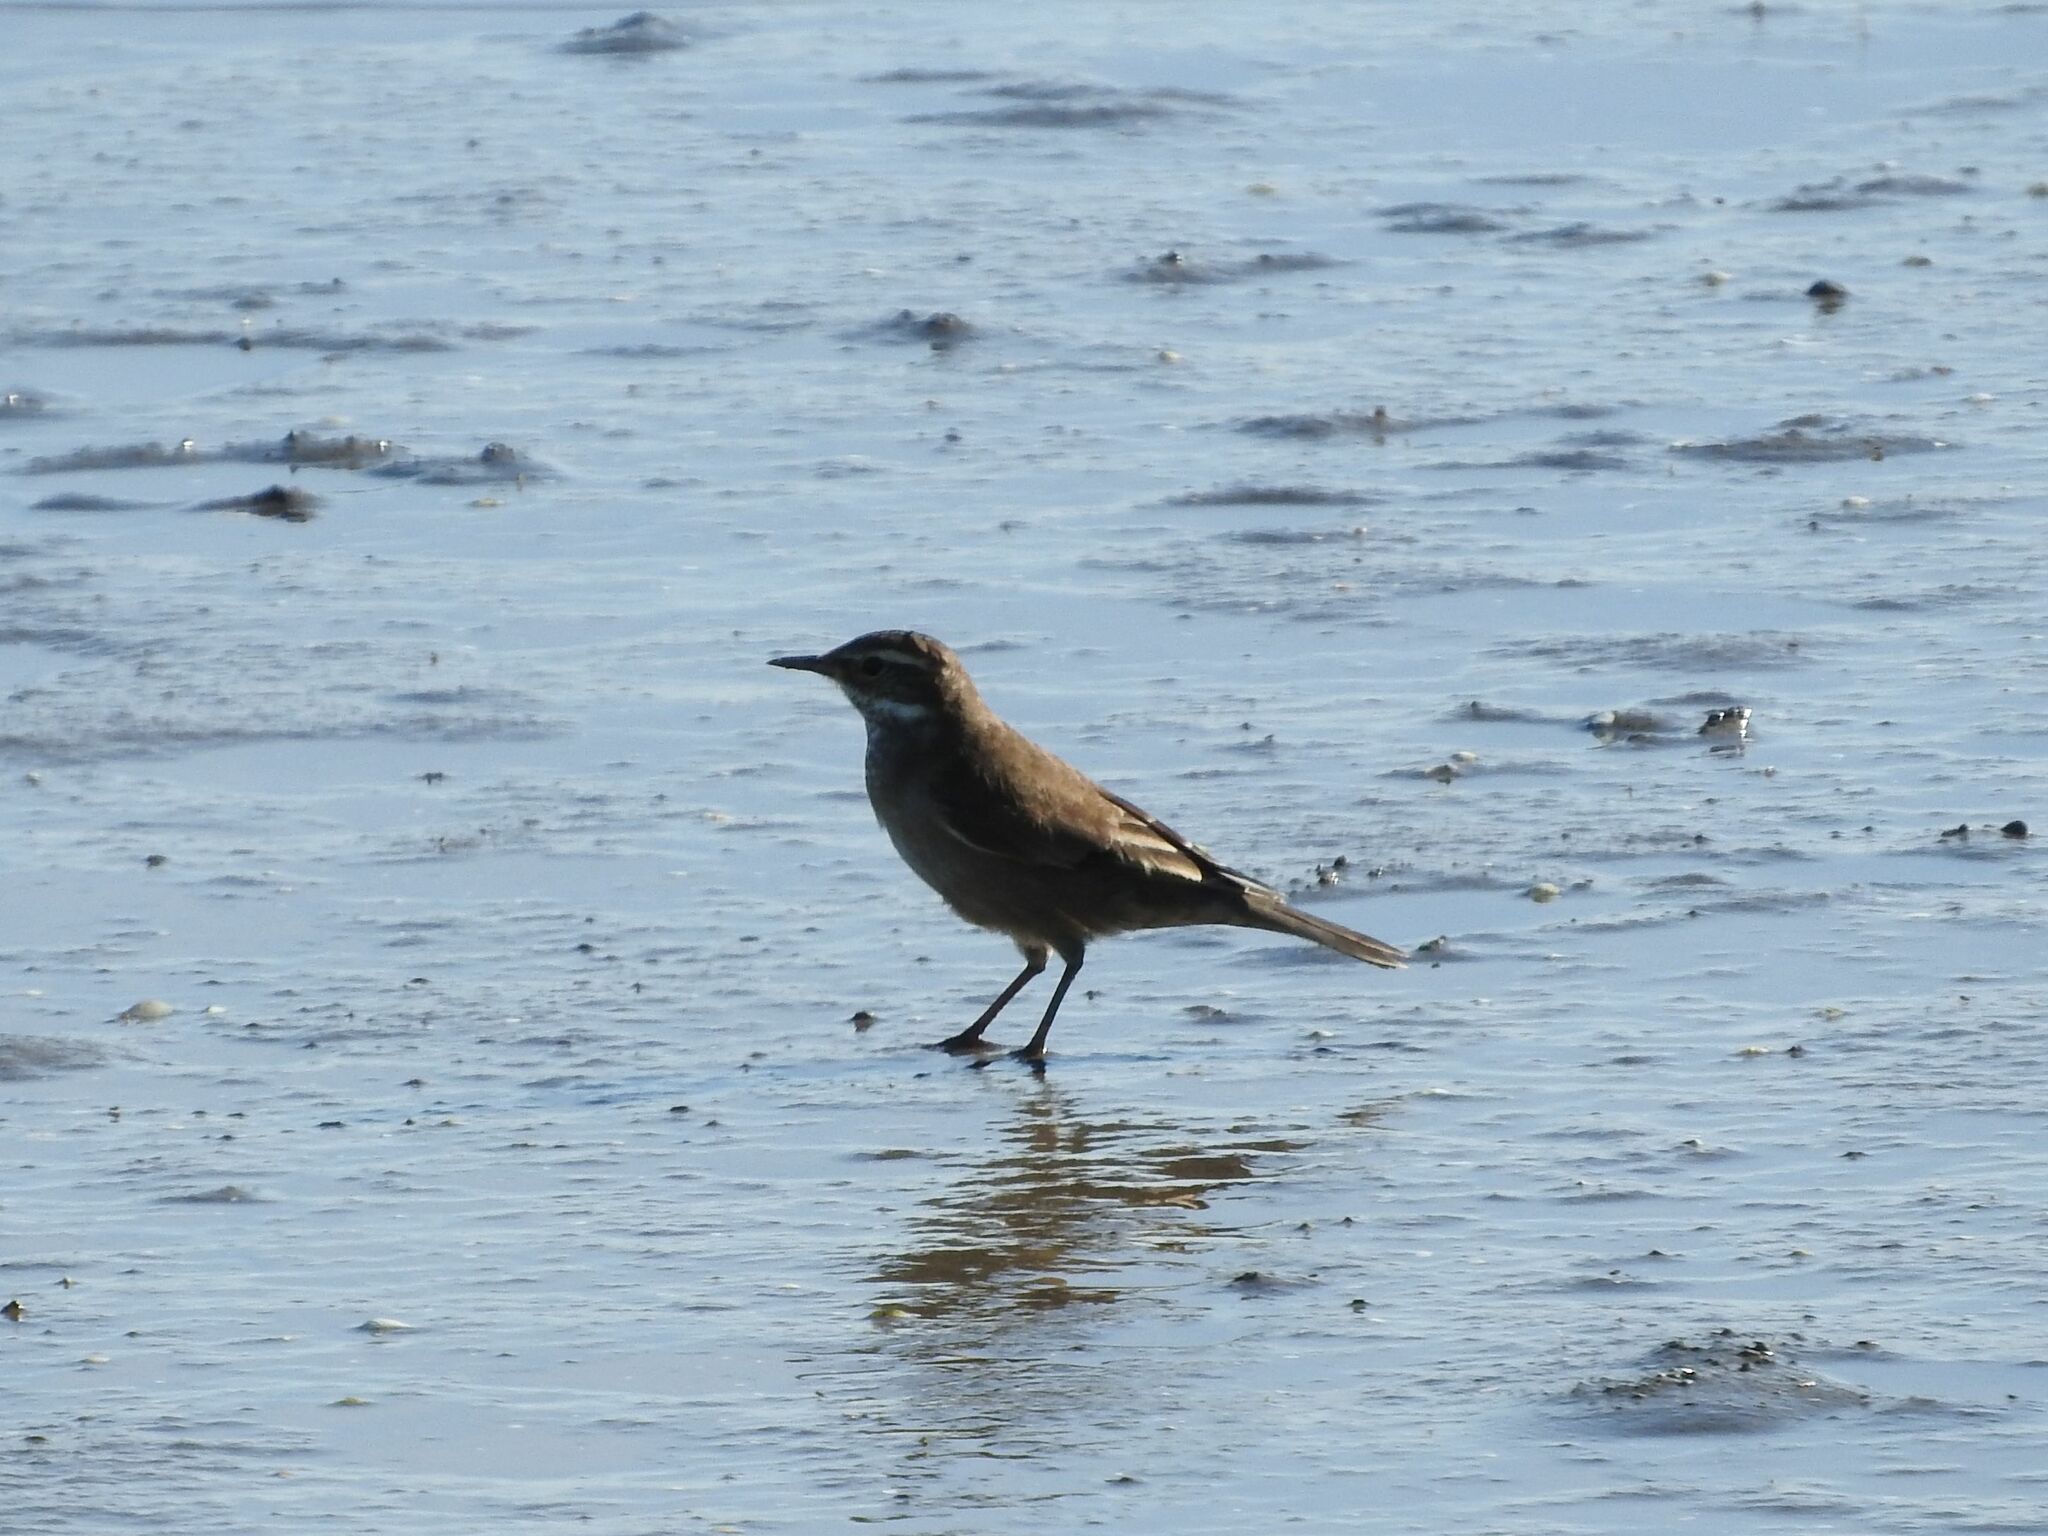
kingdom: Animalia
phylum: Chordata
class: Aves
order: Passeriformes
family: Furnariidae
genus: Cinclodes
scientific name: Cinclodes fuscus
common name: Buff-winged cinclodes
